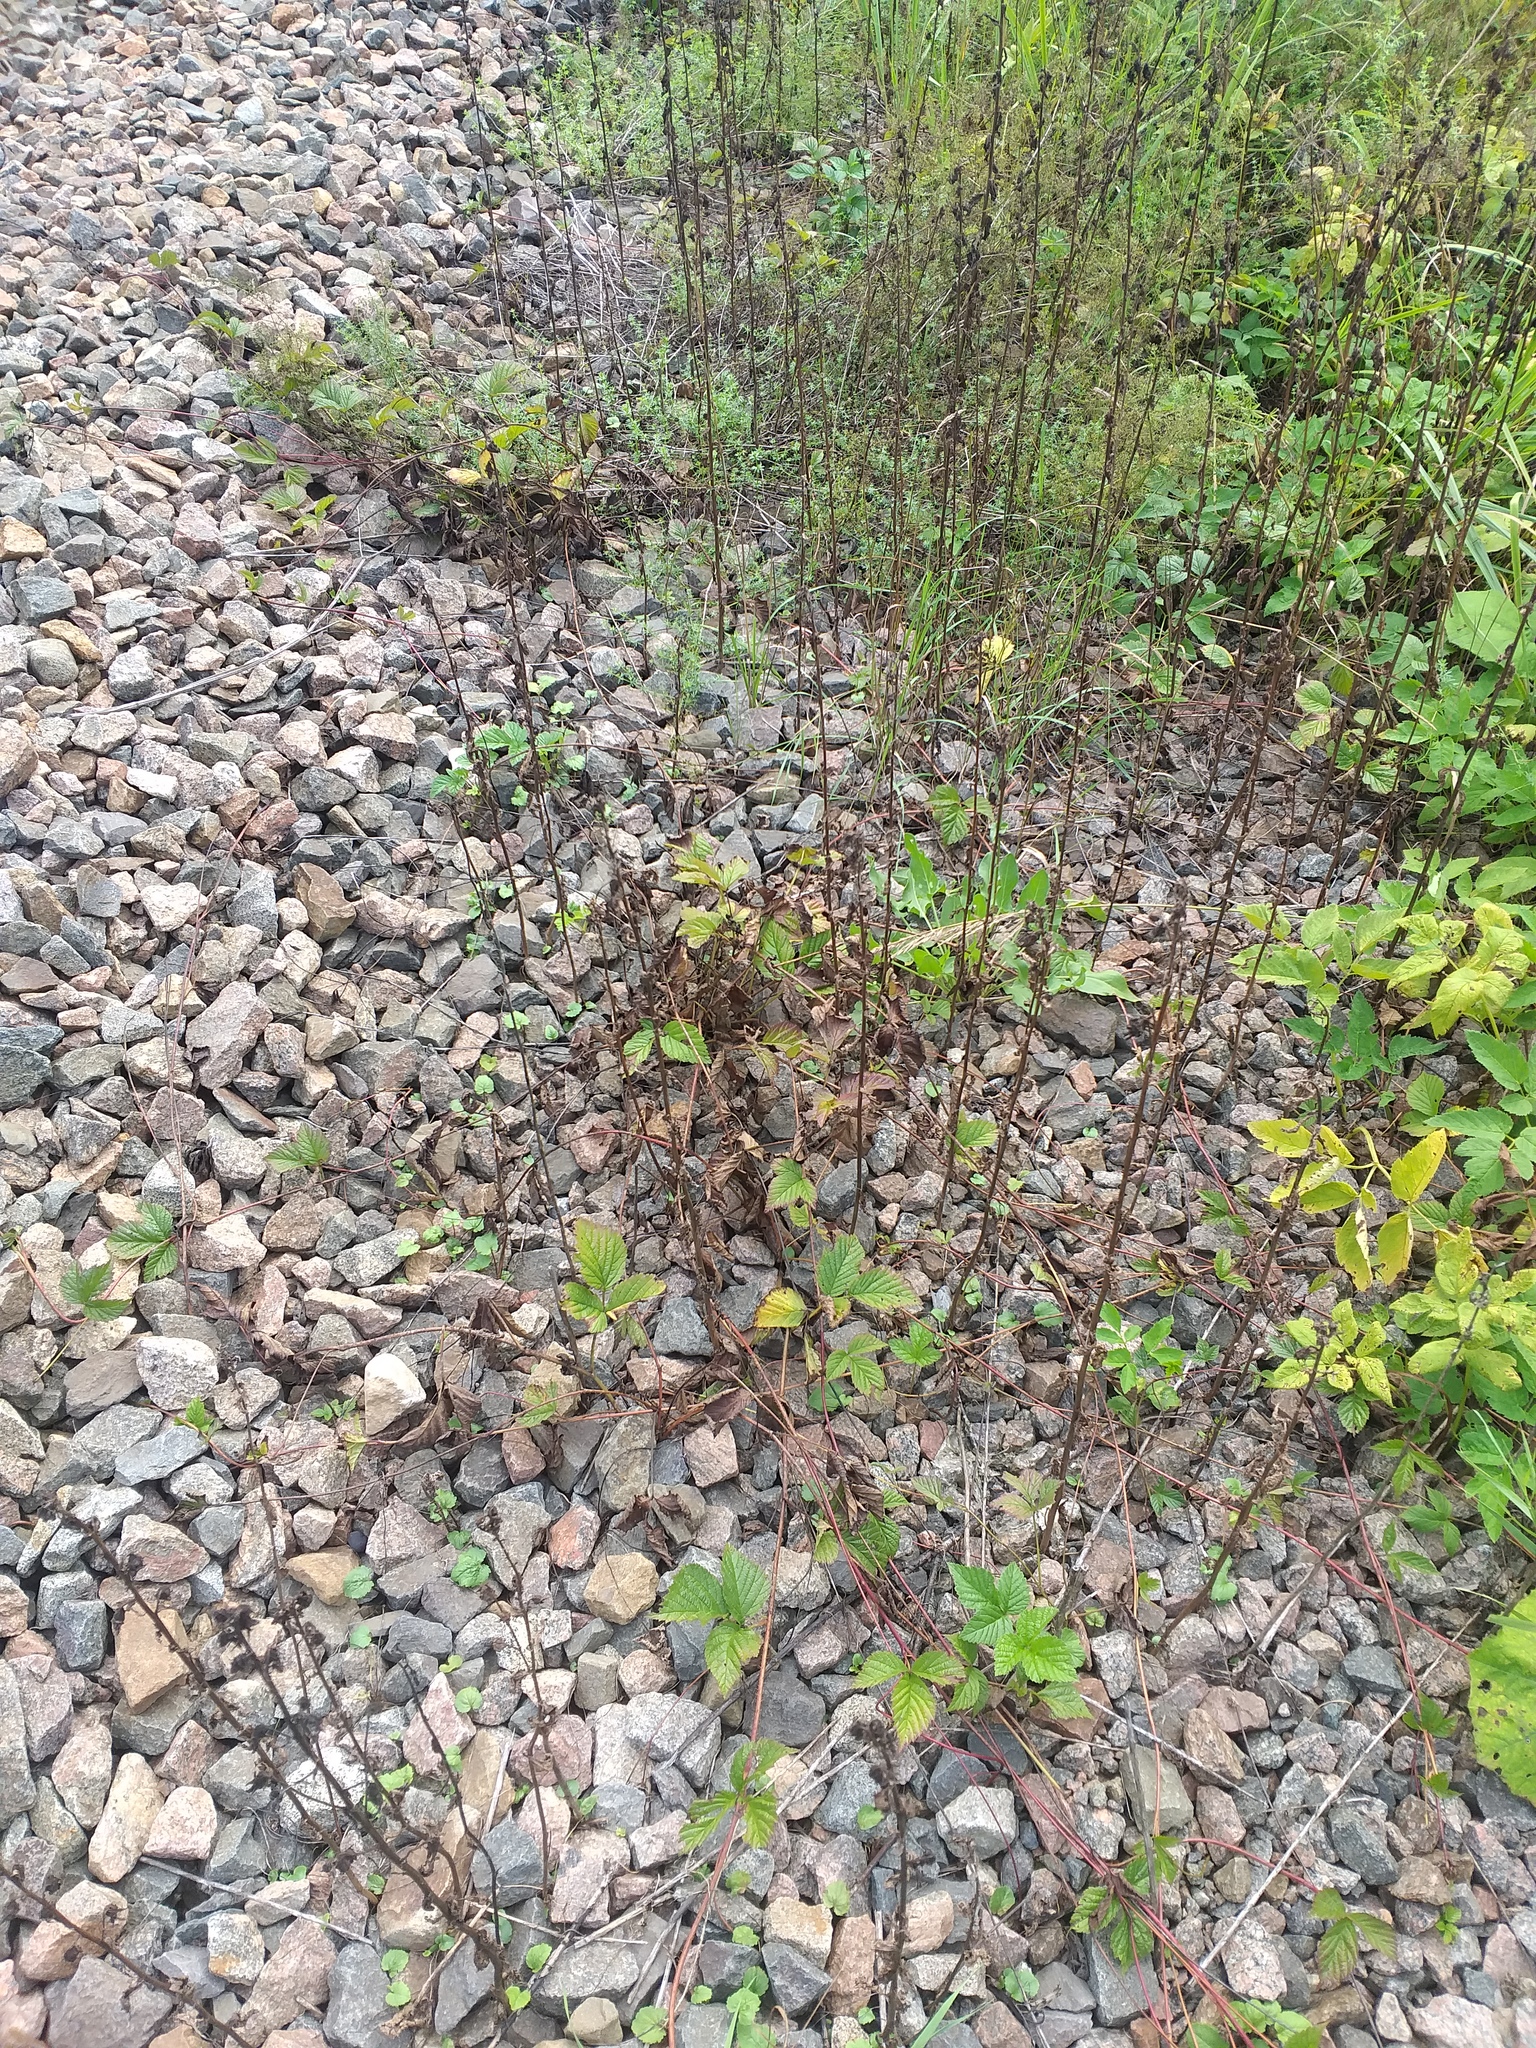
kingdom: Plantae
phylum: Tracheophyta
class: Magnoliopsida
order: Asterales
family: Campanulaceae
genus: Campanula
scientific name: Campanula rapunculoides
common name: Creeping bellflower
